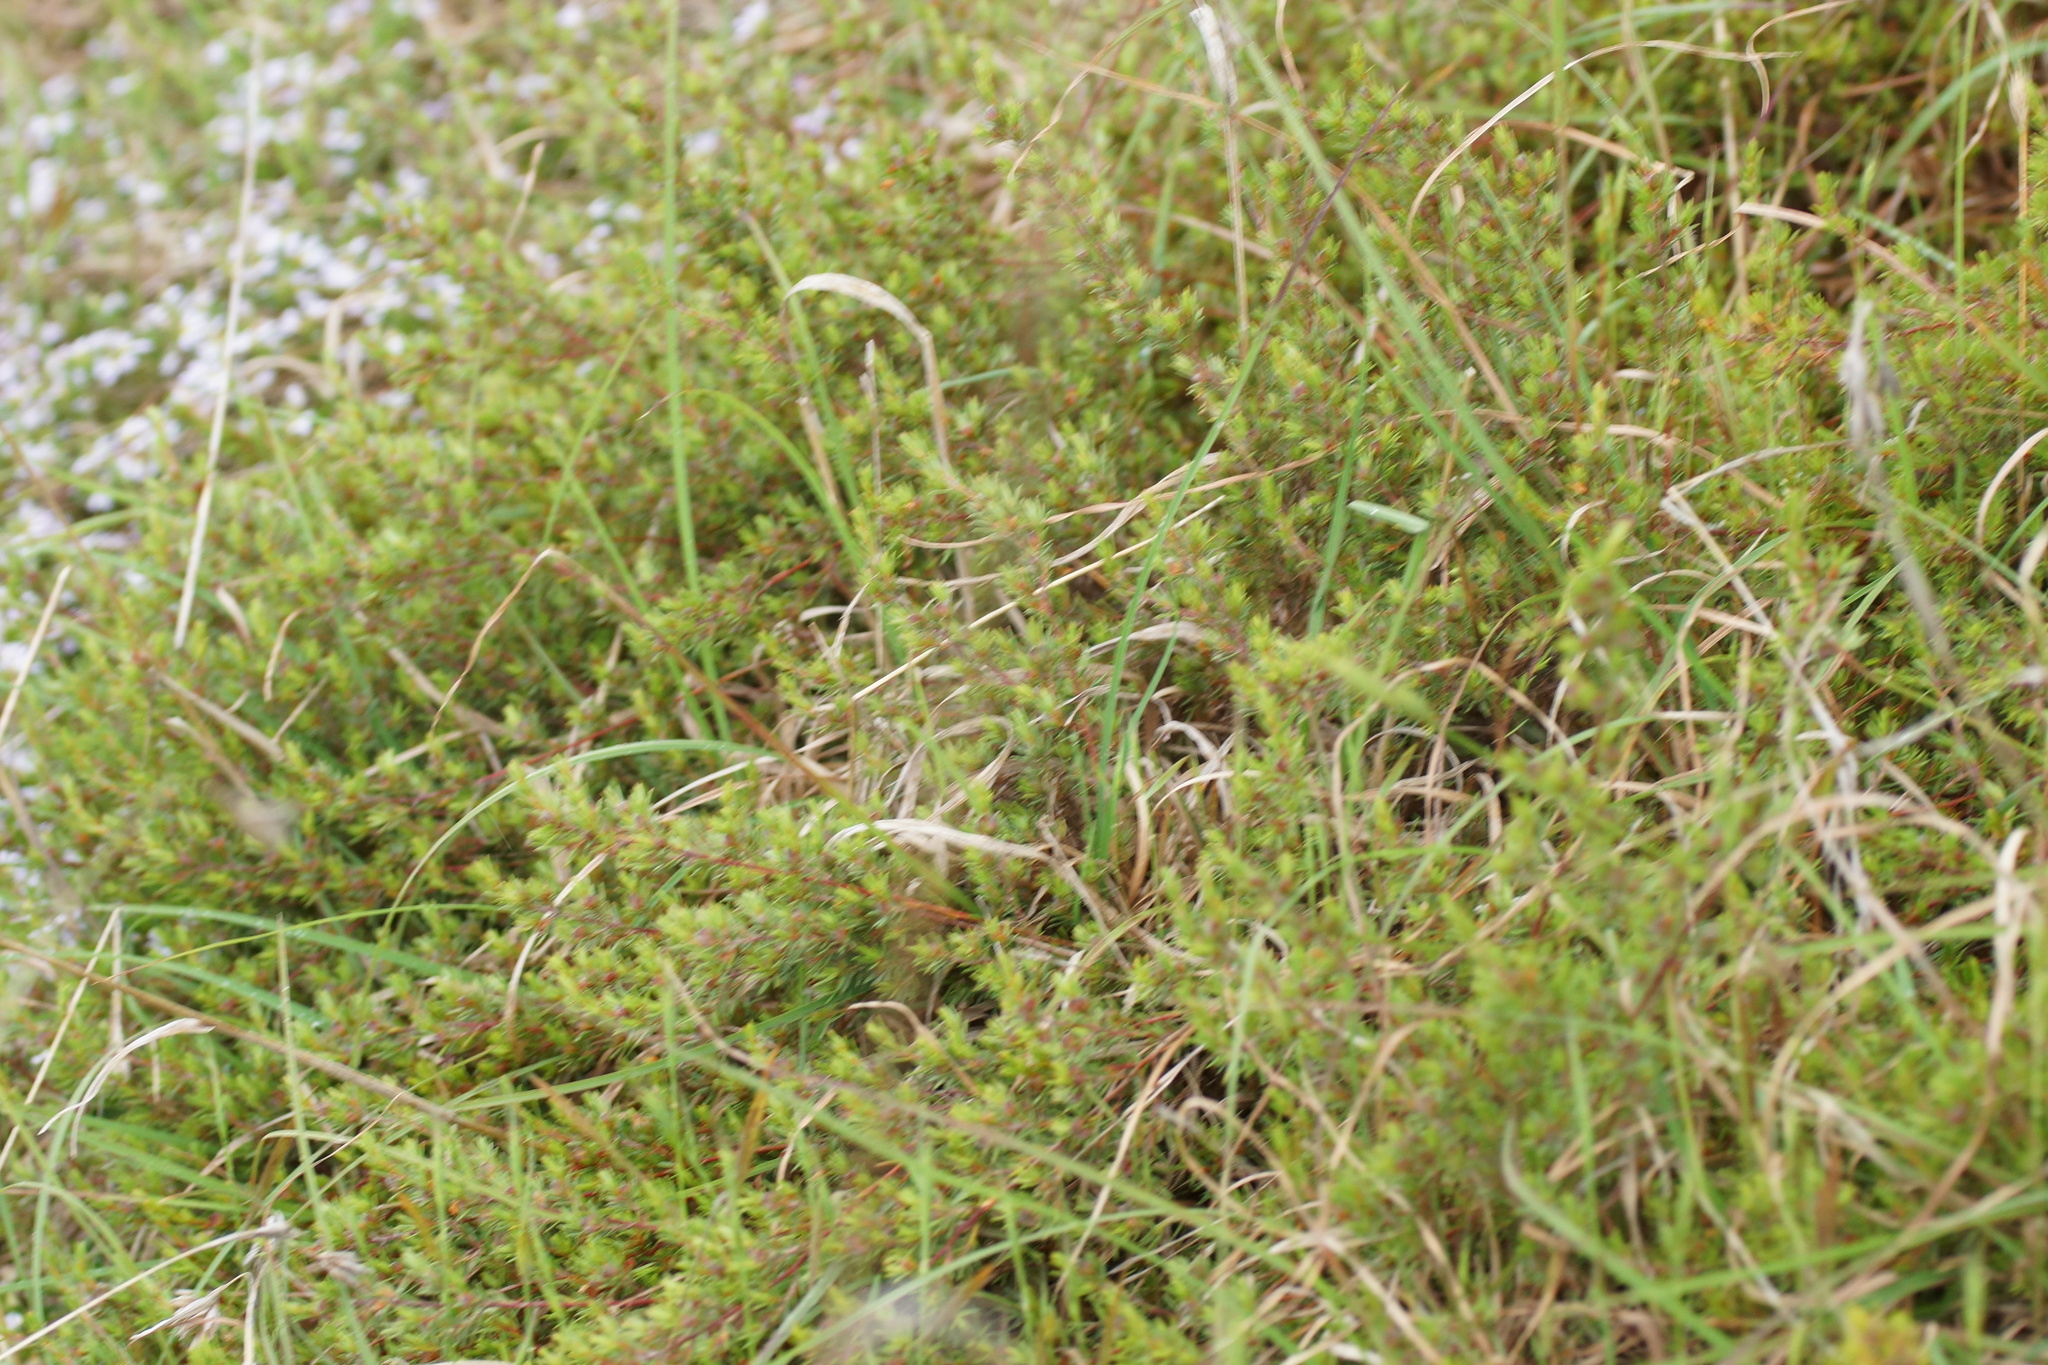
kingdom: Plantae
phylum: Tracheophyta
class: Magnoliopsida
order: Fabales
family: Fabaceae
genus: Pultenaea
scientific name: Pultenaea tenuifolia
